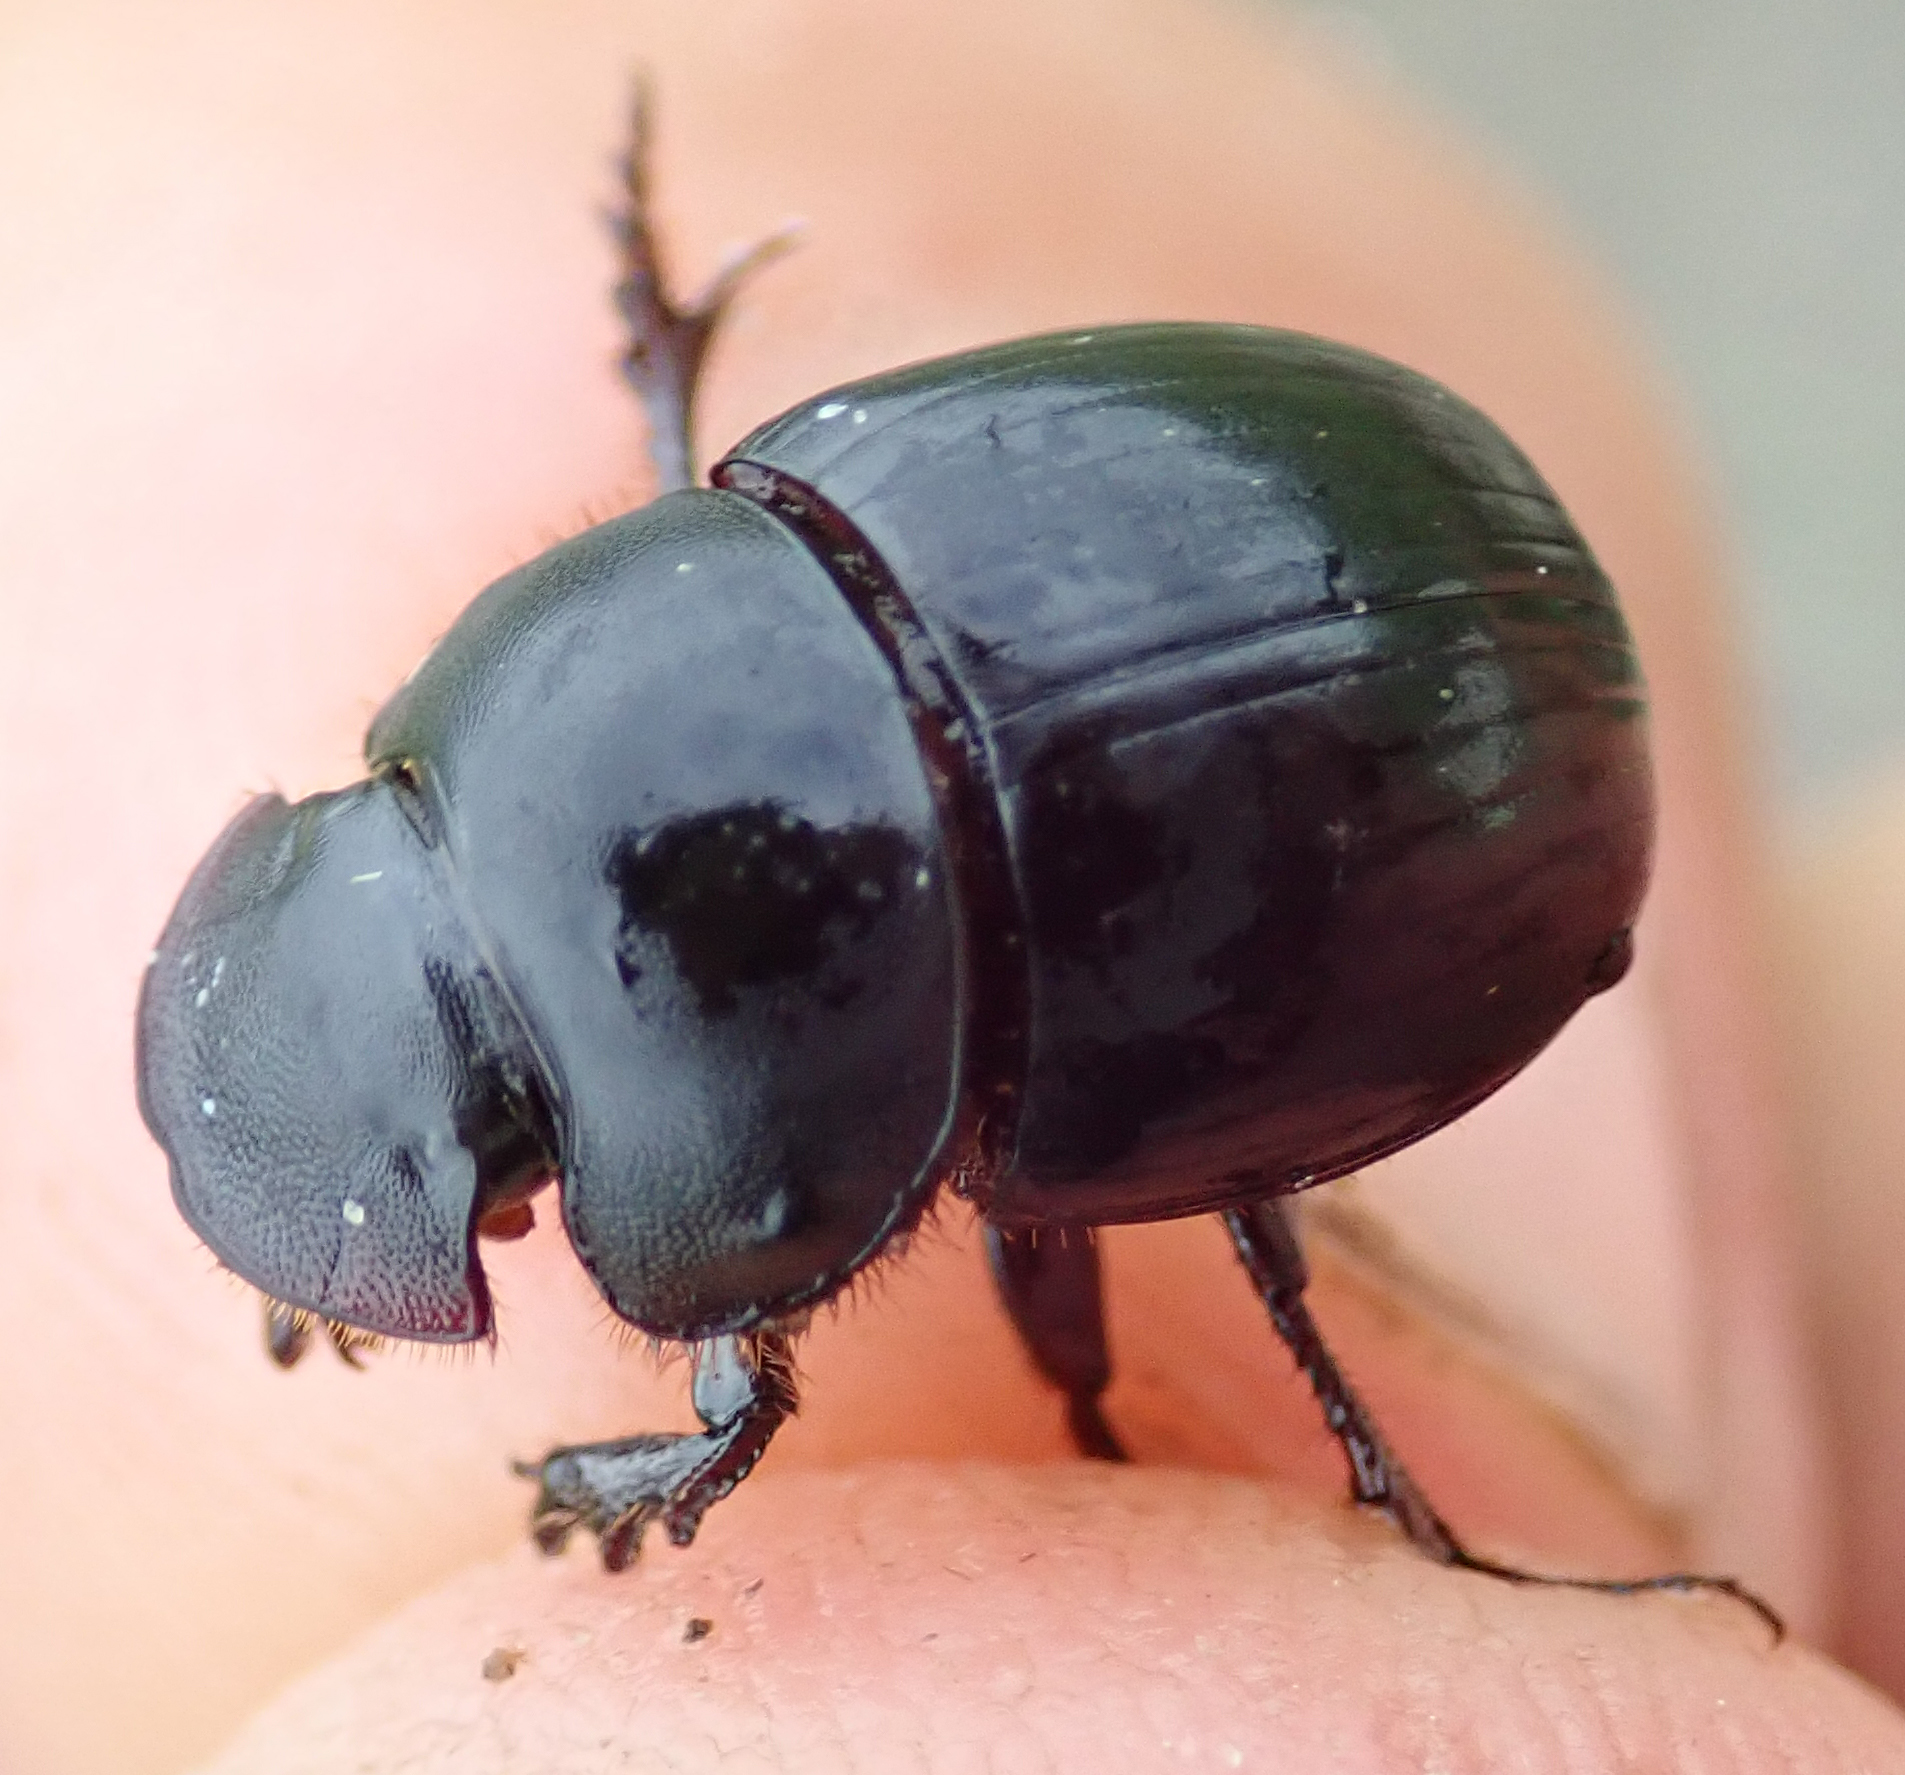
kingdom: Animalia
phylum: Arthropoda
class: Insecta
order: Coleoptera
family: Scarabaeidae
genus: Metacatharsius
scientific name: Metacatharsius marani
